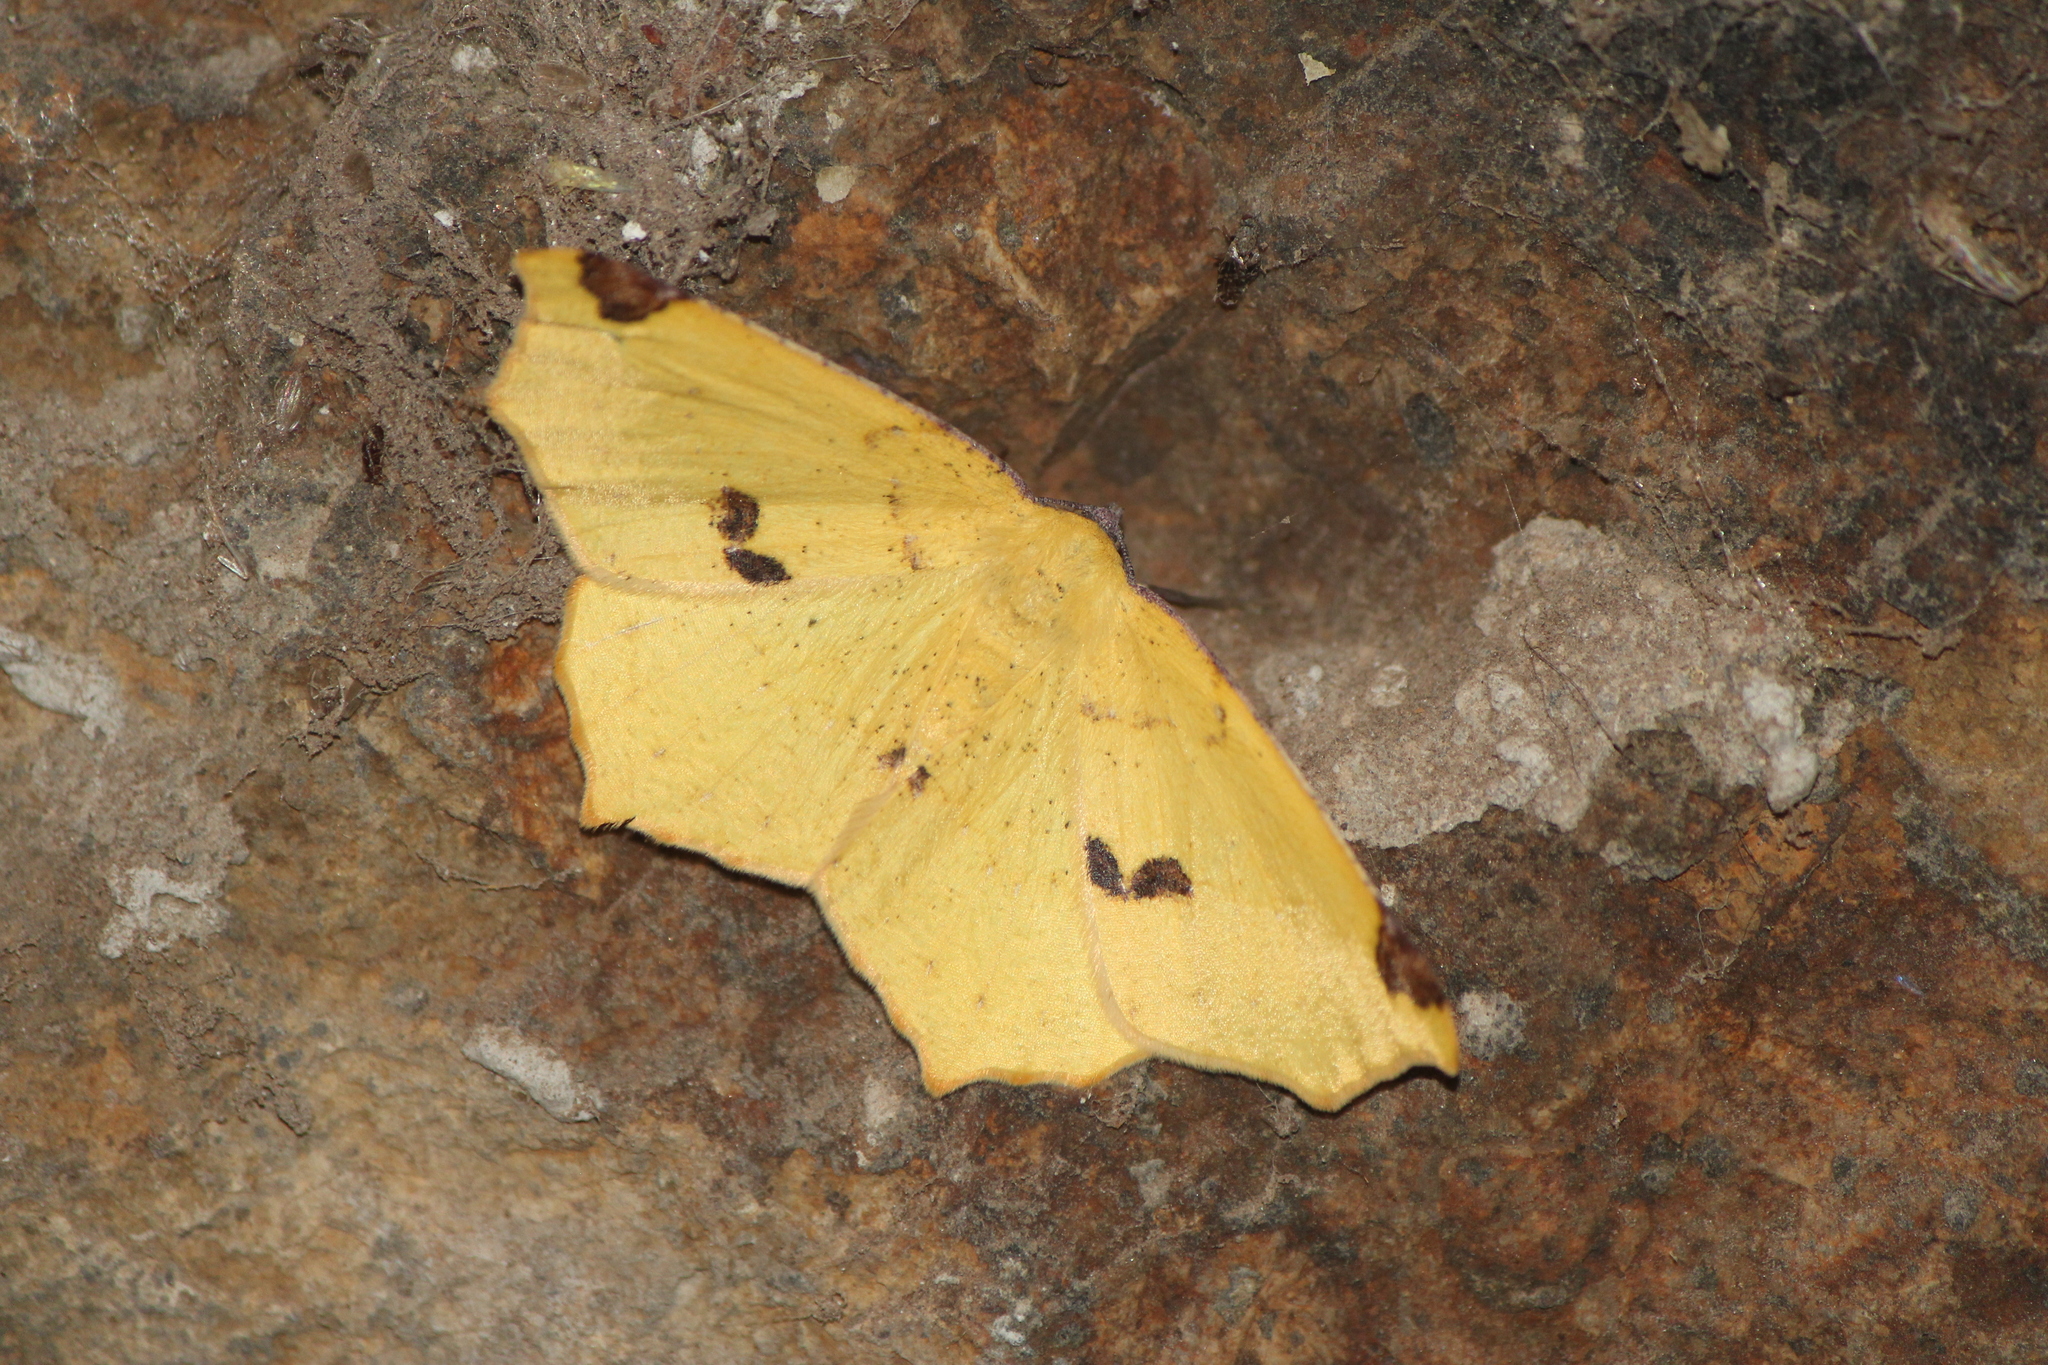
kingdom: Animalia
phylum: Arthropoda
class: Insecta
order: Lepidoptera
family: Geometridae
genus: Antepione
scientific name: Antepione thisoaria
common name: Variable antipione
